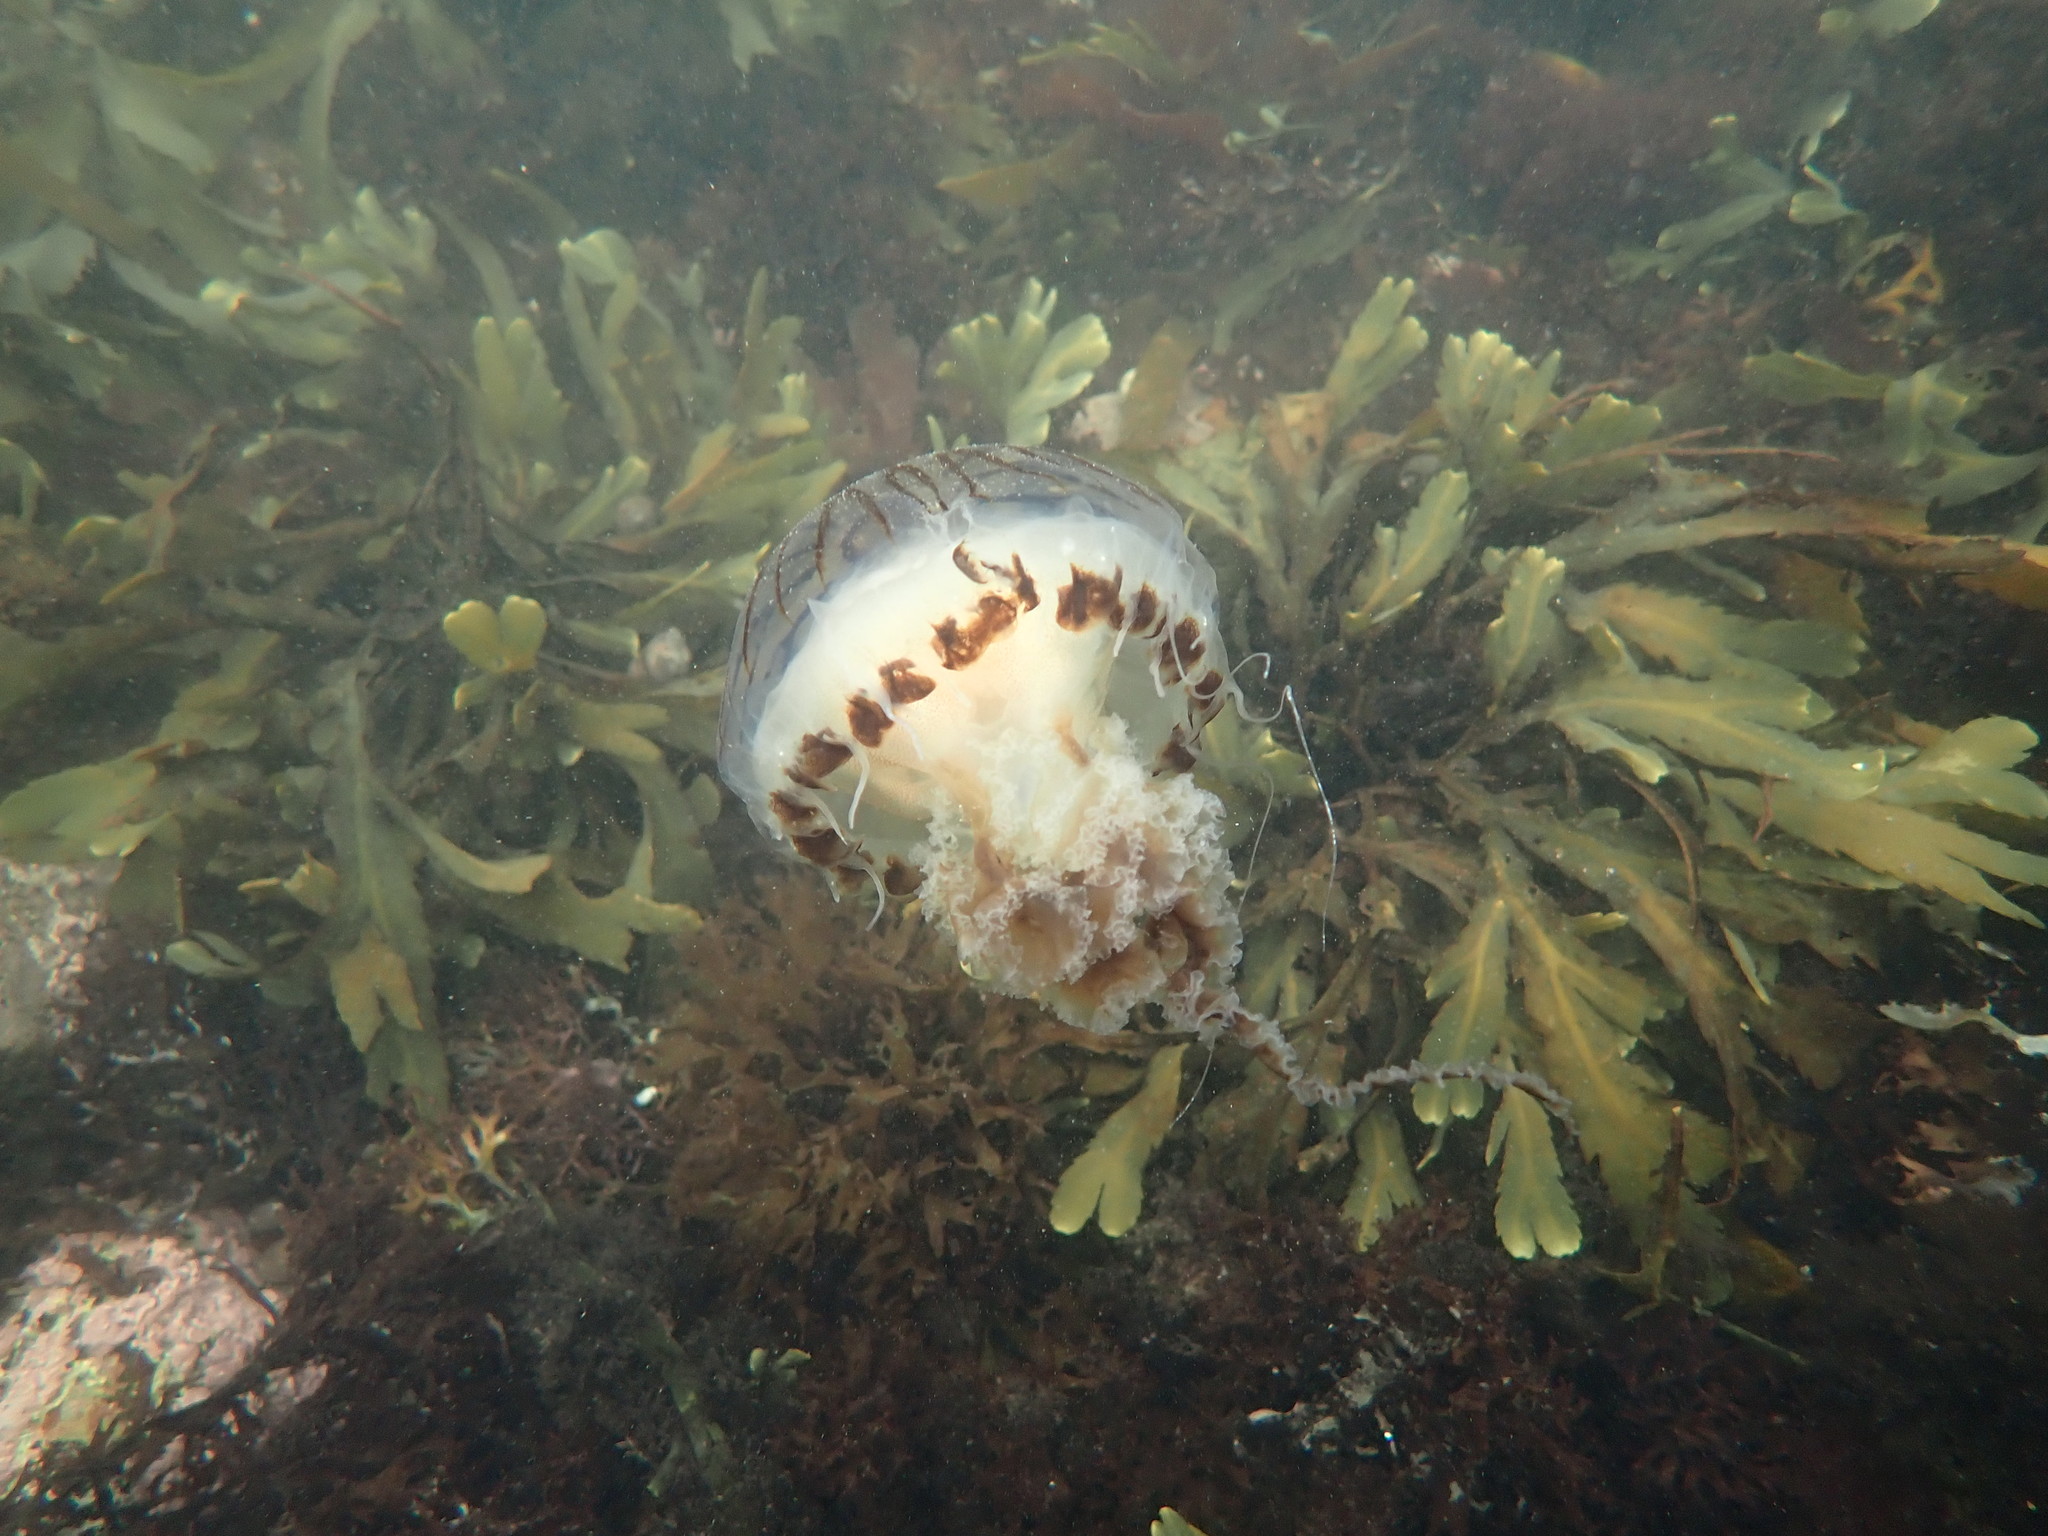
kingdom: Animalia
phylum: Cnidaria
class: Scyphozoa
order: Semaeostomeae
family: Pelagiidae
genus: Chrysaora
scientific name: Chrysaora hysoscella
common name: Compass jellyfish
